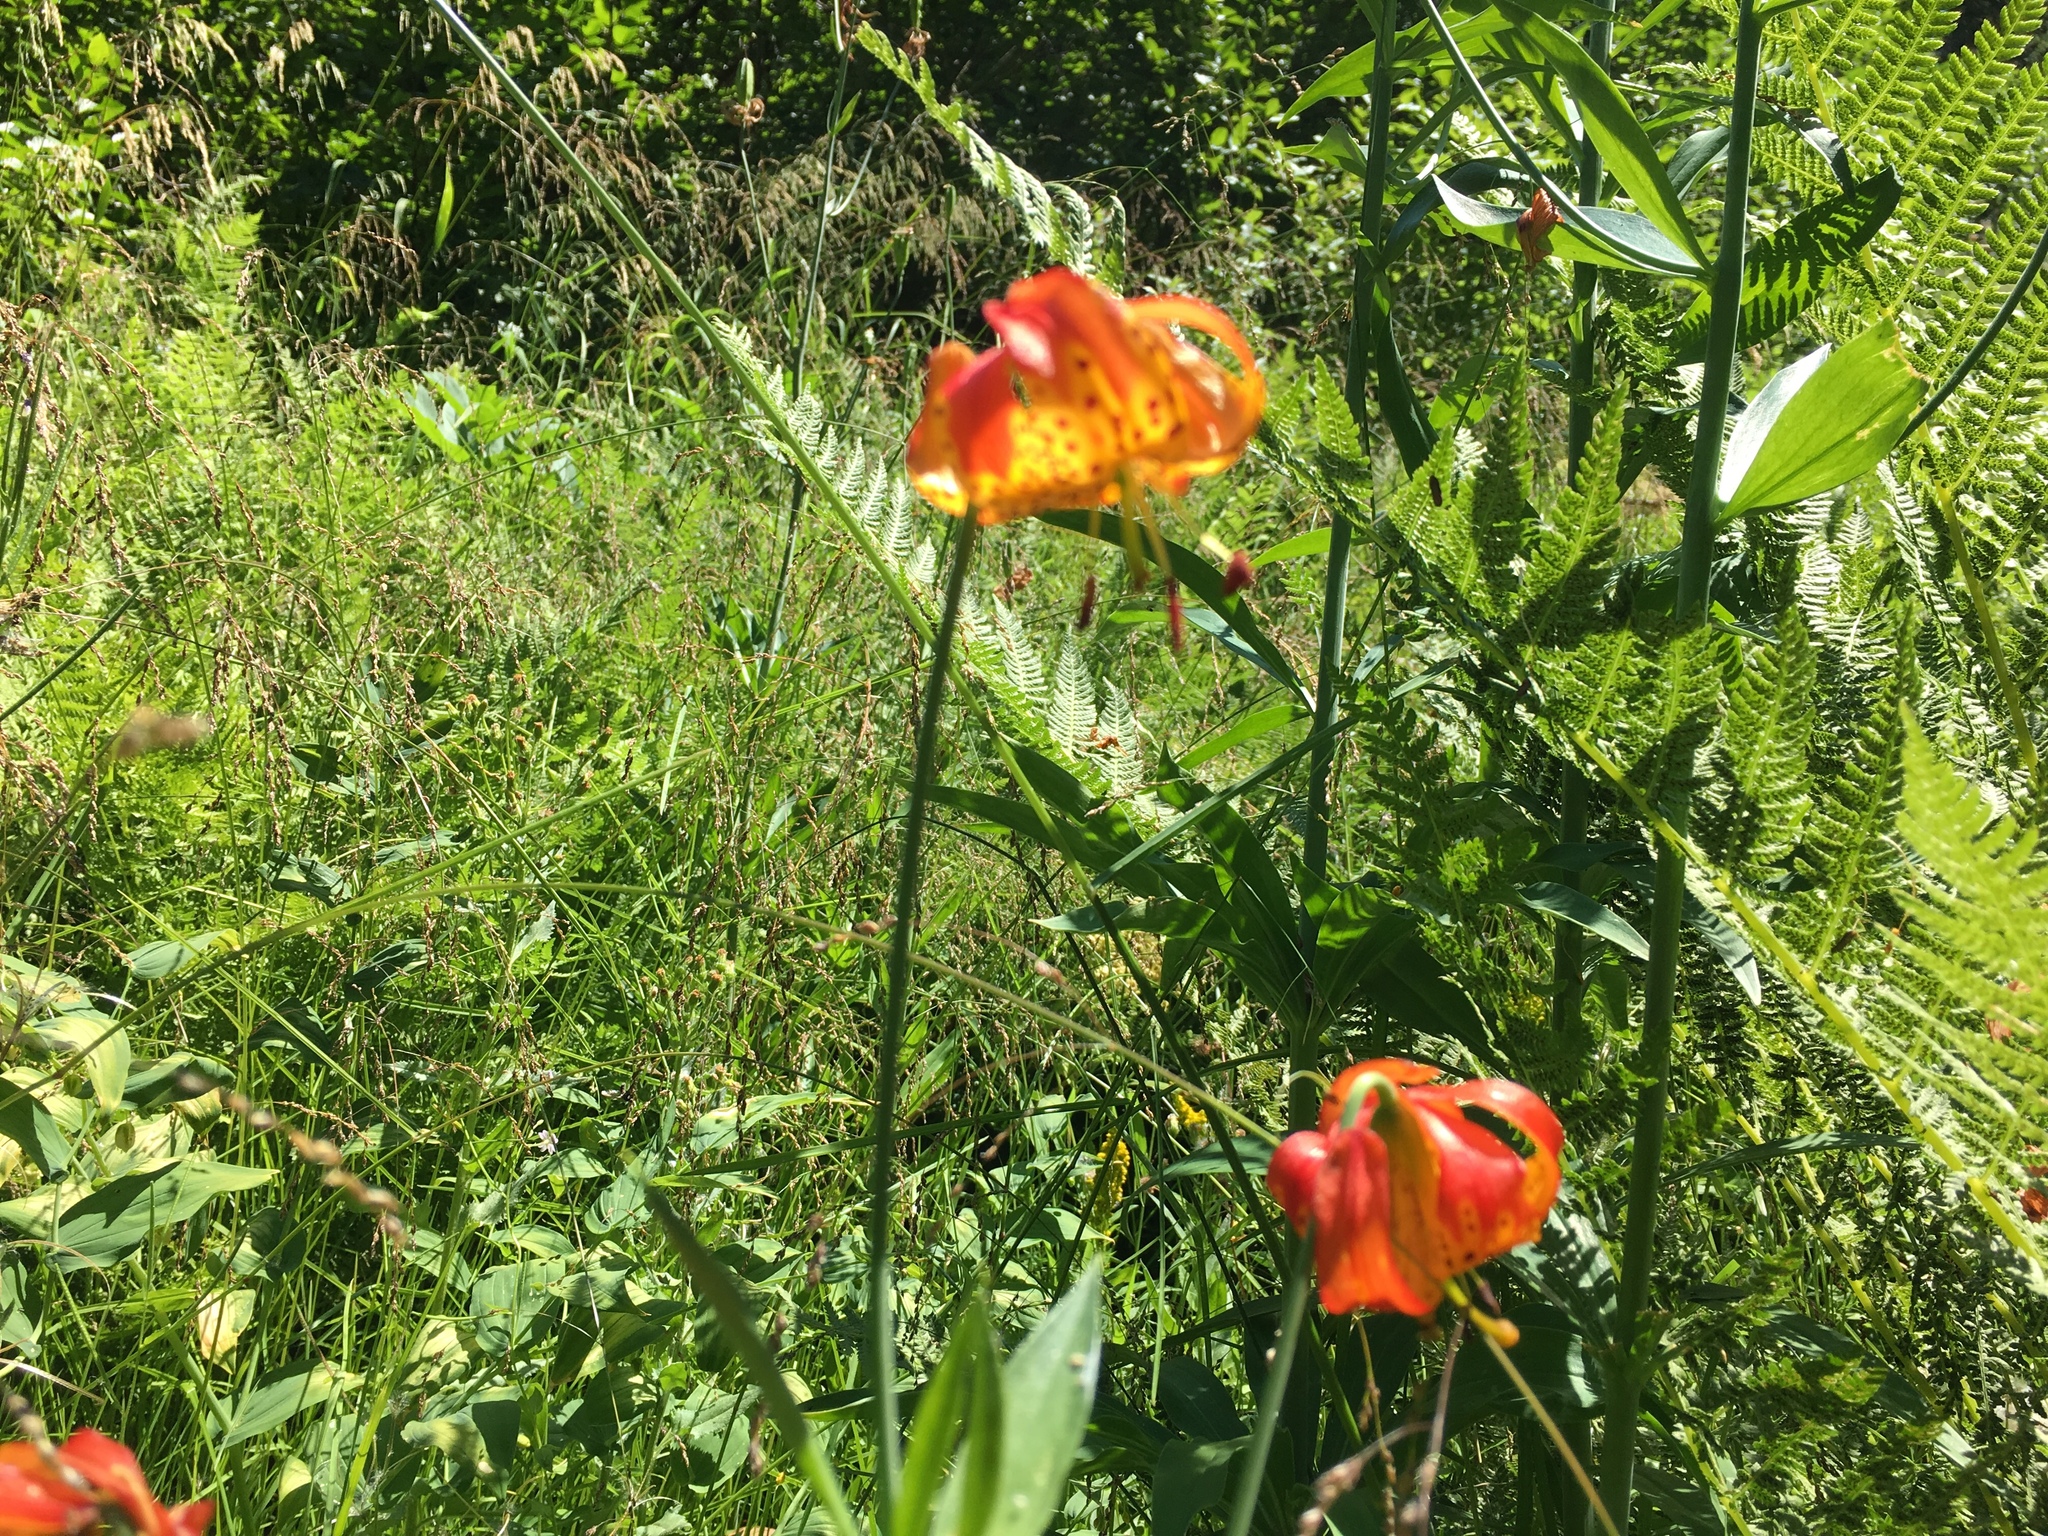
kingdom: Plantae
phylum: Tracheophyta
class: Liliopsida
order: Liliales
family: Liliaceae
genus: Lilium
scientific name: Lilium pardalinum
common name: Panther lily
